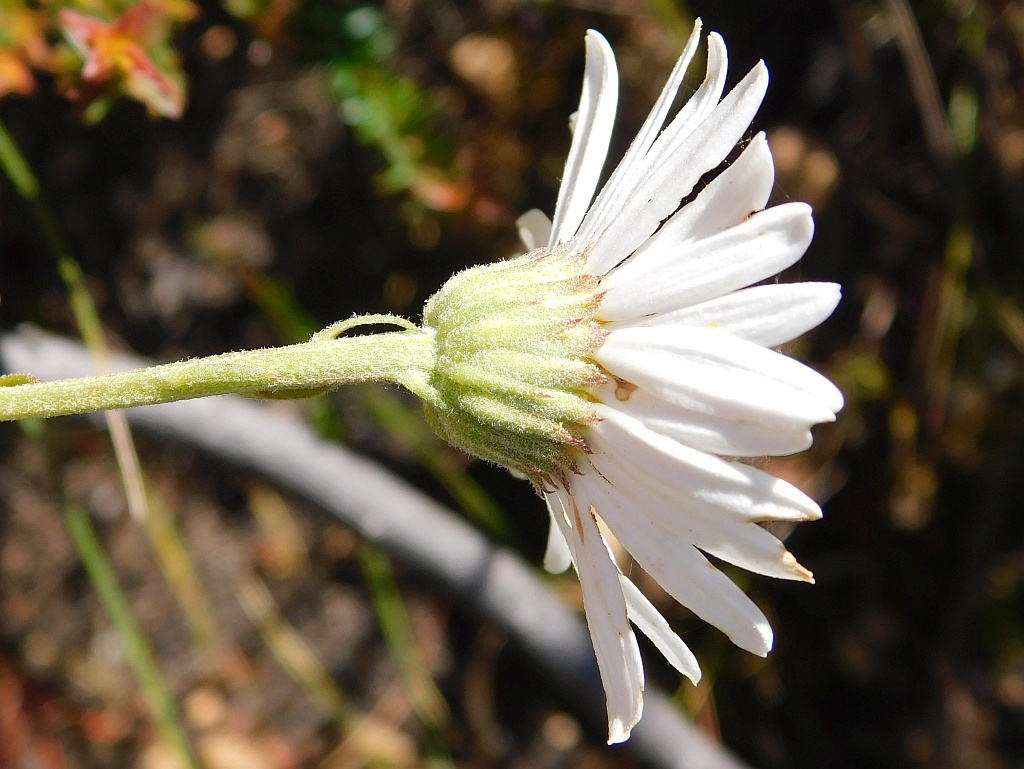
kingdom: Plantae
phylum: Tracheophyta
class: Magnoliopsida
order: Asterales
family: Asteraceae
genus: Osmitopsis
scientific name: Osmitopsis afra
